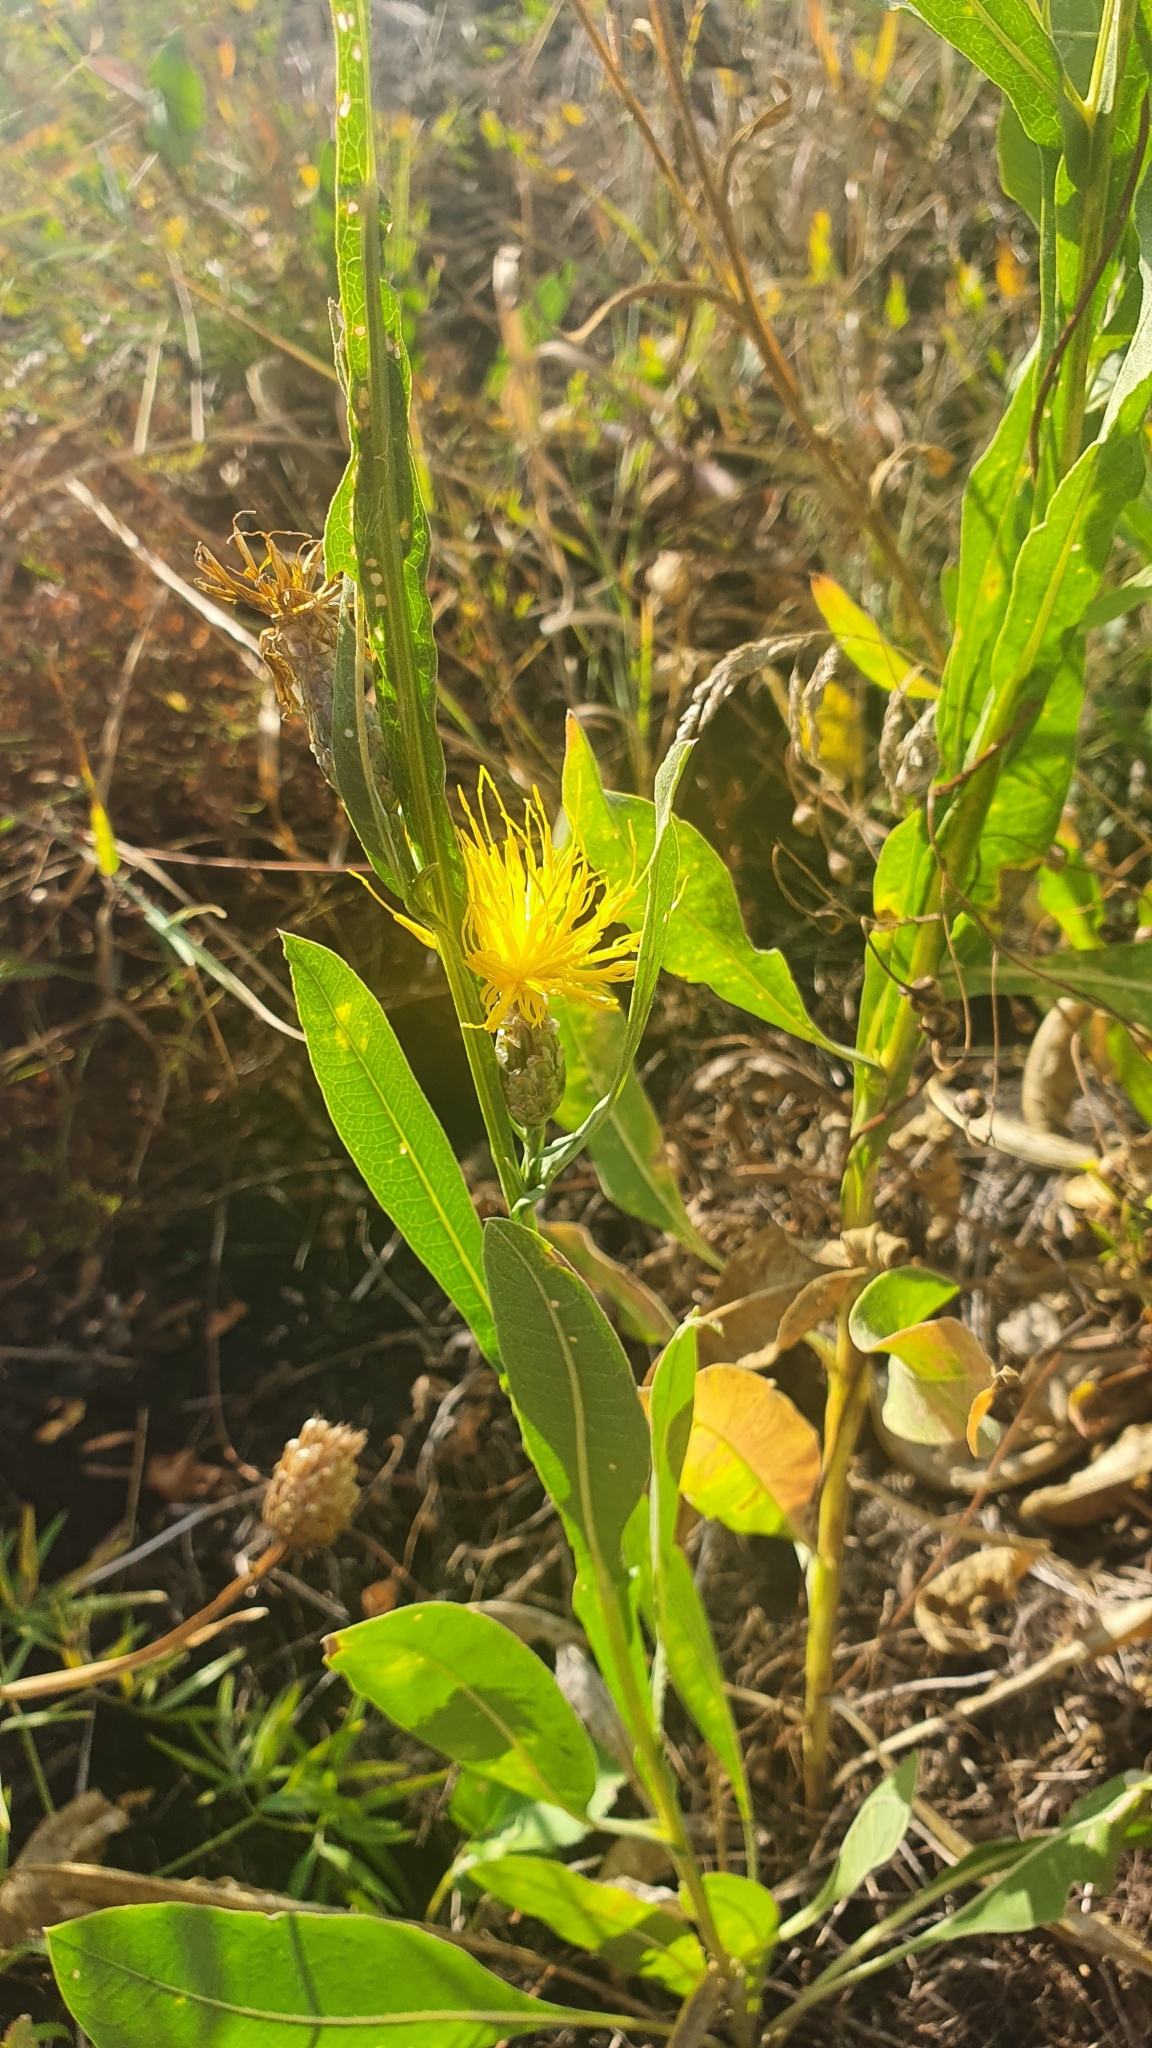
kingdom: Plantae
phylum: Tracheophyta
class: Magnoliopsida
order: Asterales
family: Asteraceae
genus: Centaurea
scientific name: Centaurea glastifolia
